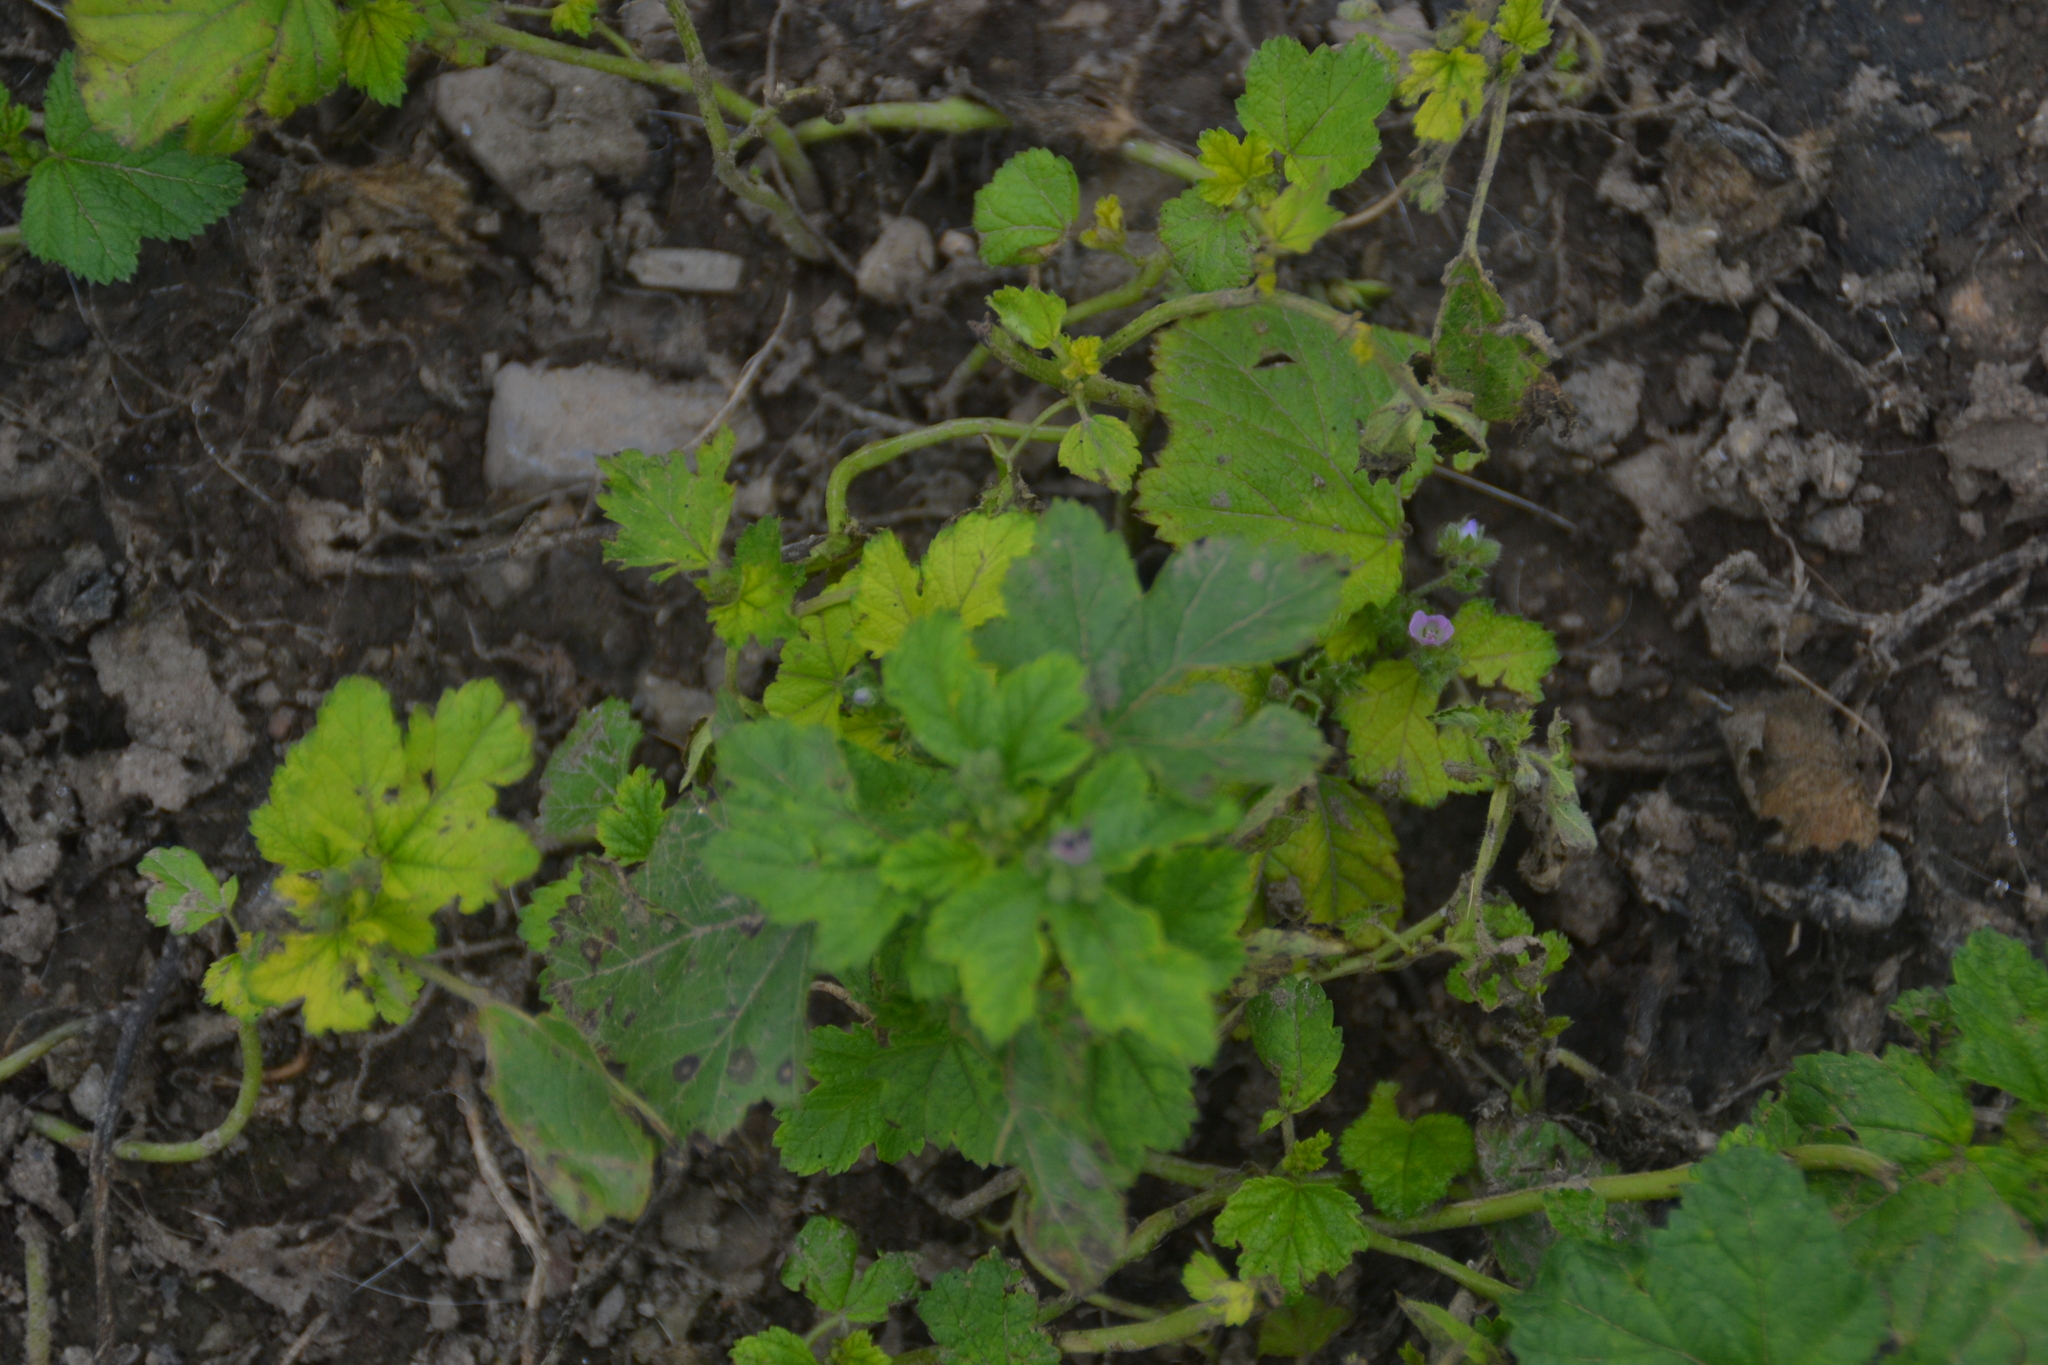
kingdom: Plantae
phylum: Tracheophyta
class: Magnoliopsida
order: Malvales
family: Malvaceae
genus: Fuertesimalva
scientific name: Fuertesimalva limensis
